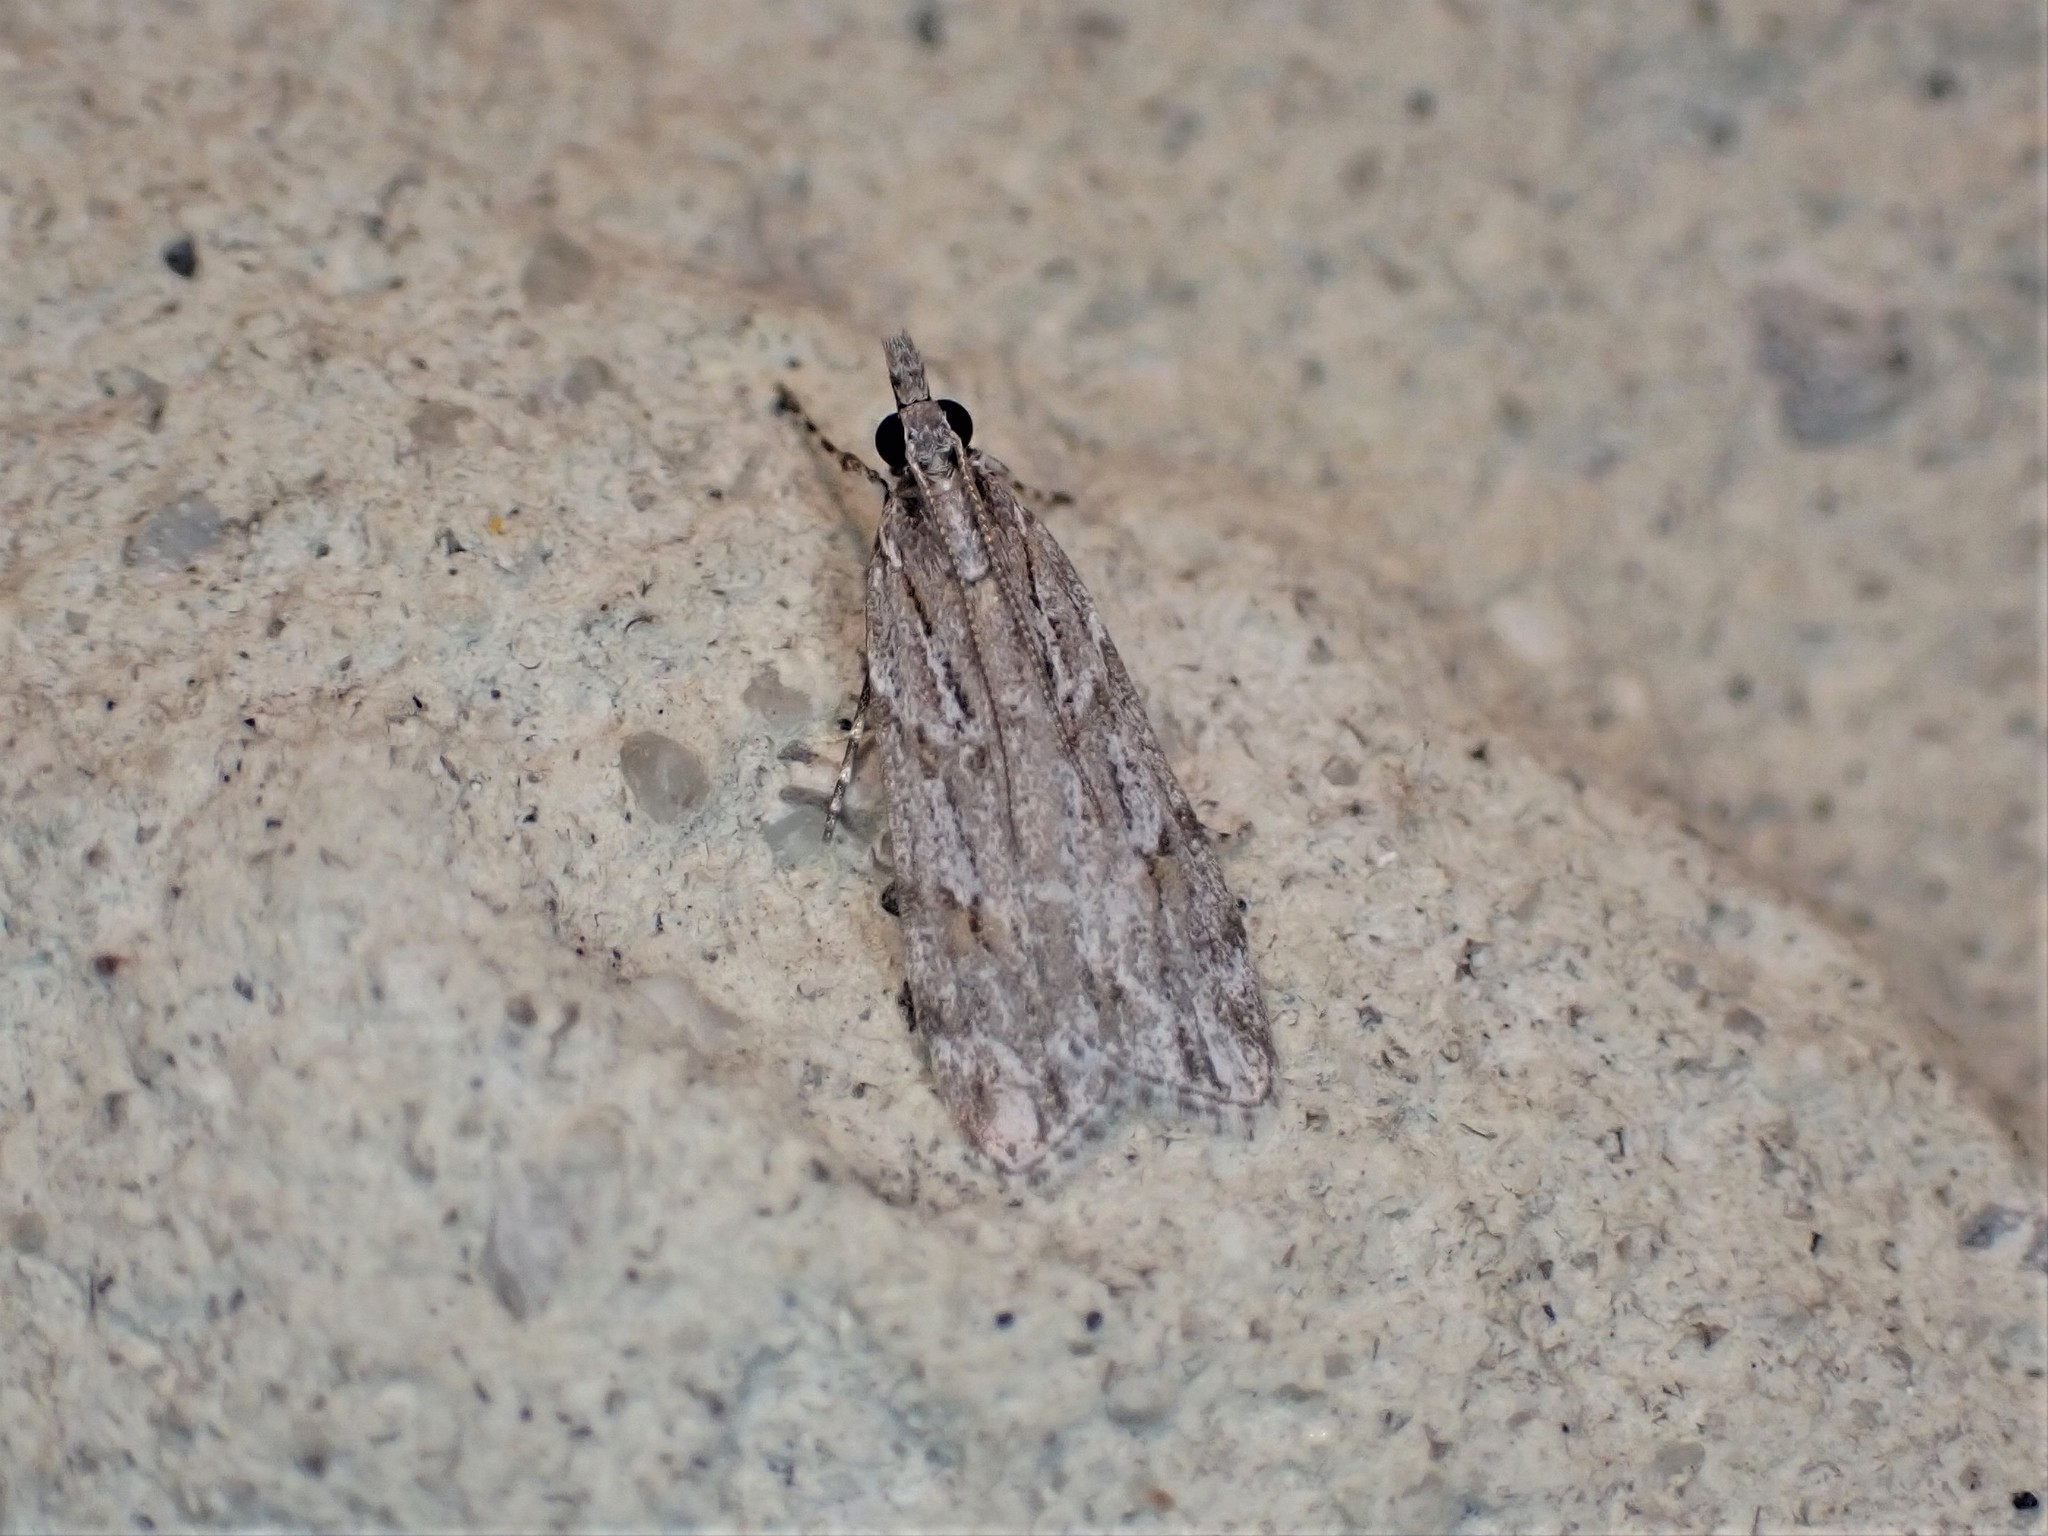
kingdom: Animalia
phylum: Arthropoda
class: Insecta
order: Lepidoptera
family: Crambidae
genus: Scoparia
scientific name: Scoparia chalicodes
